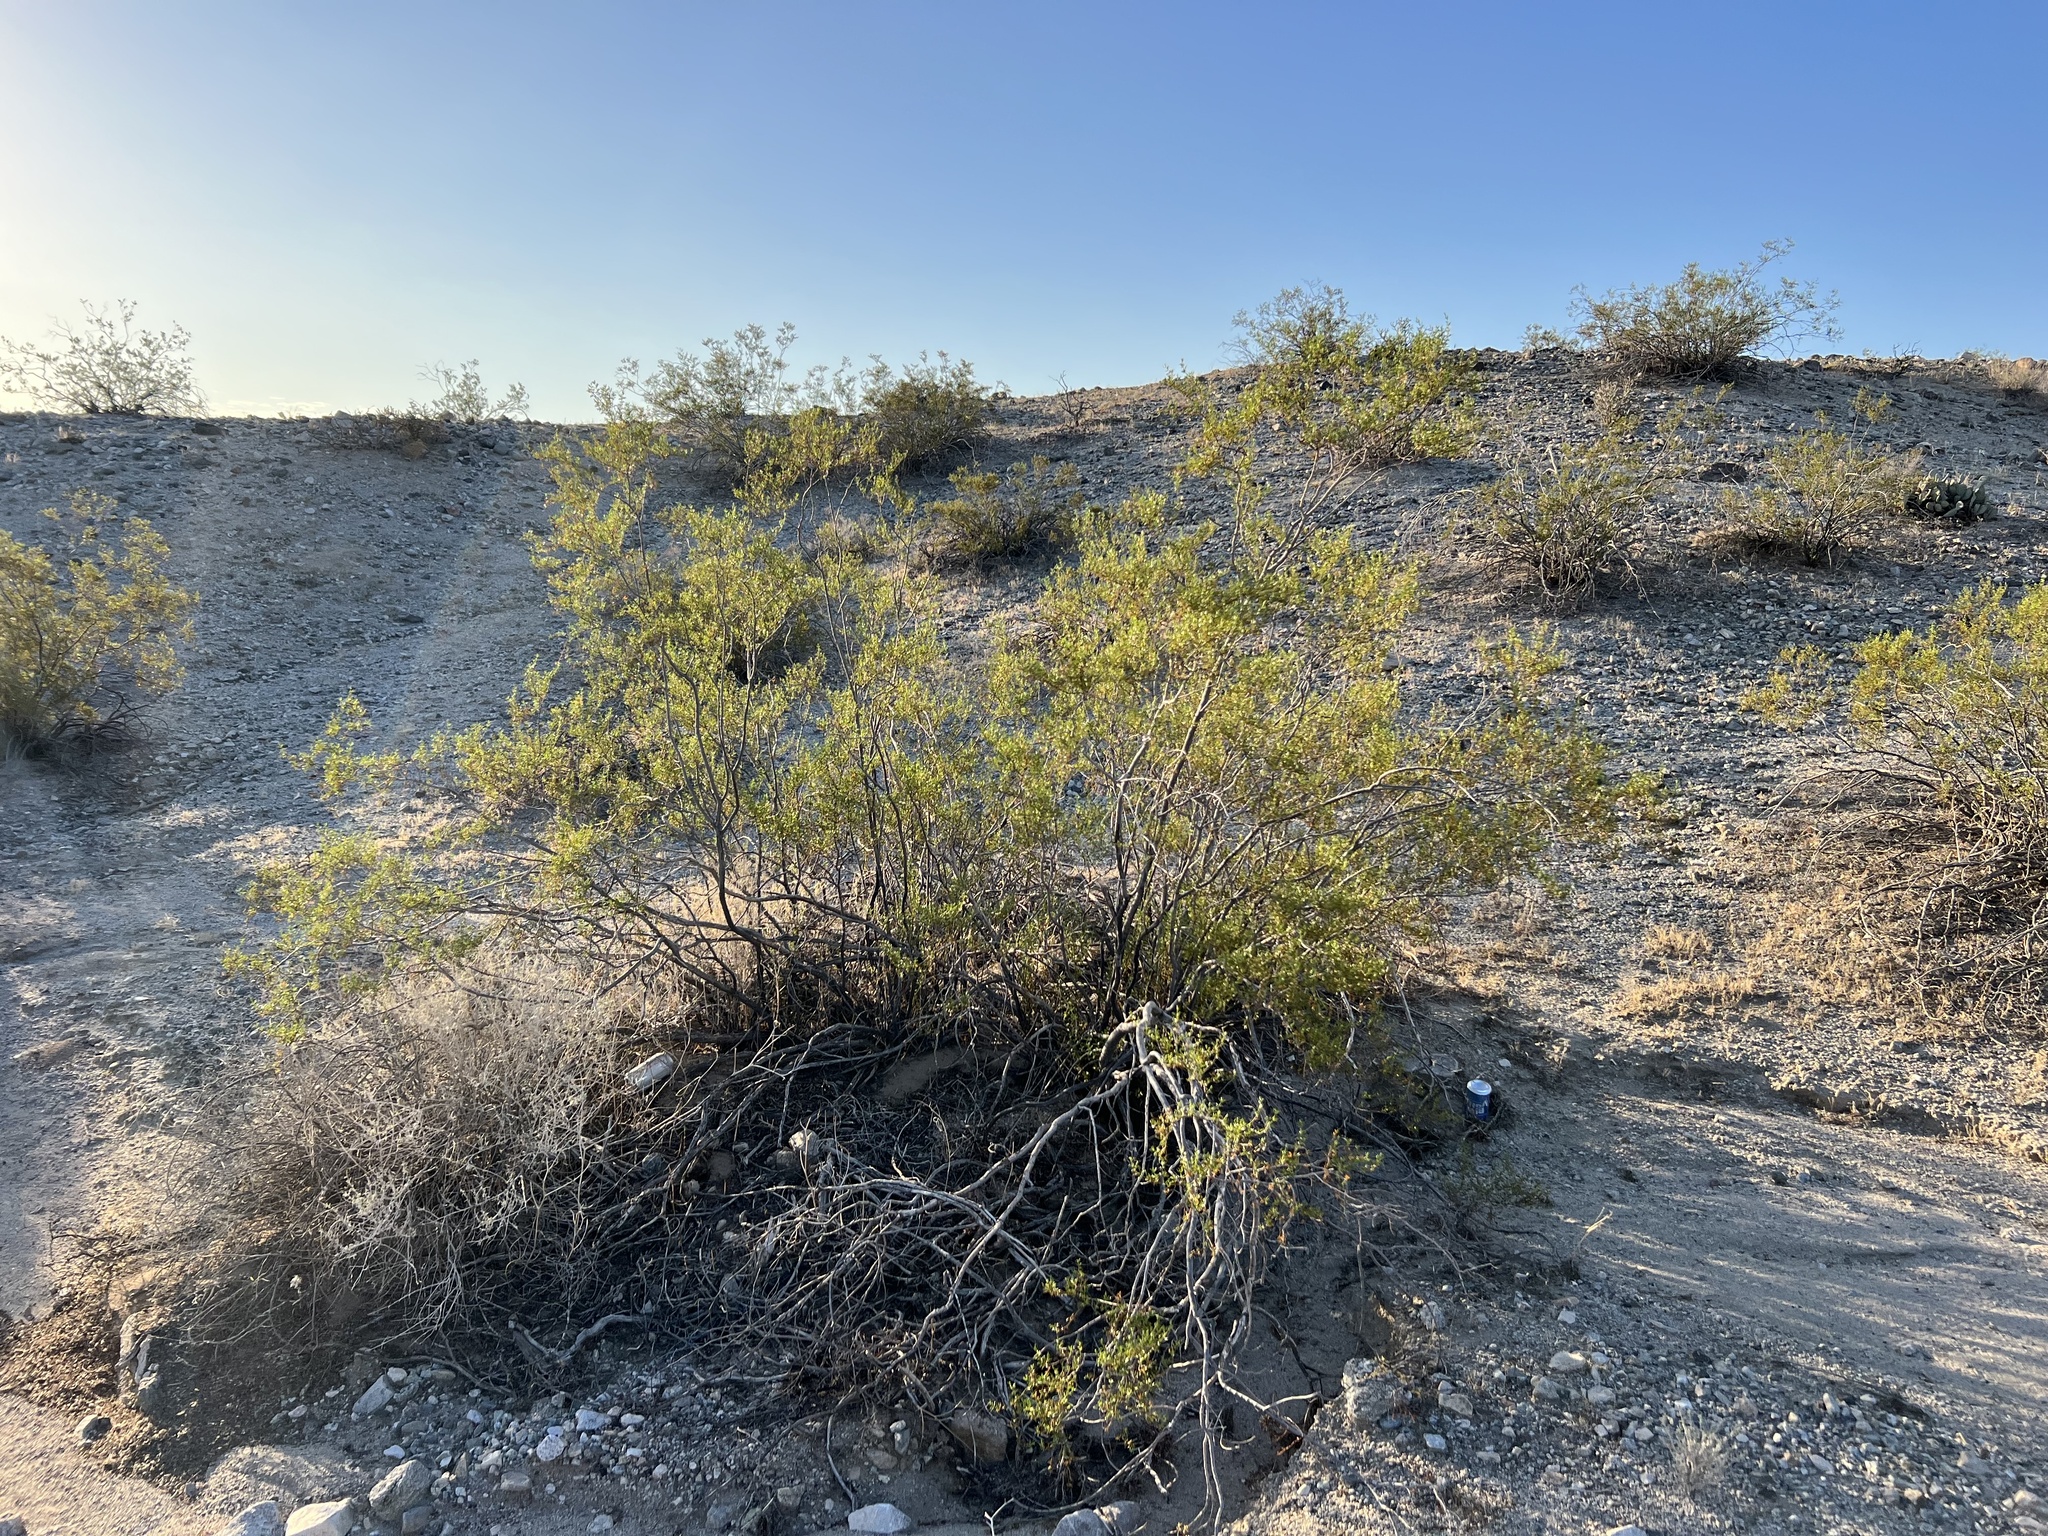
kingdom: Plantae
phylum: Tracheophyta
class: Magnoliopsida
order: Zygophyllales
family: Zygophyllaceae
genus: Larrea
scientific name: Larrea tridentata
